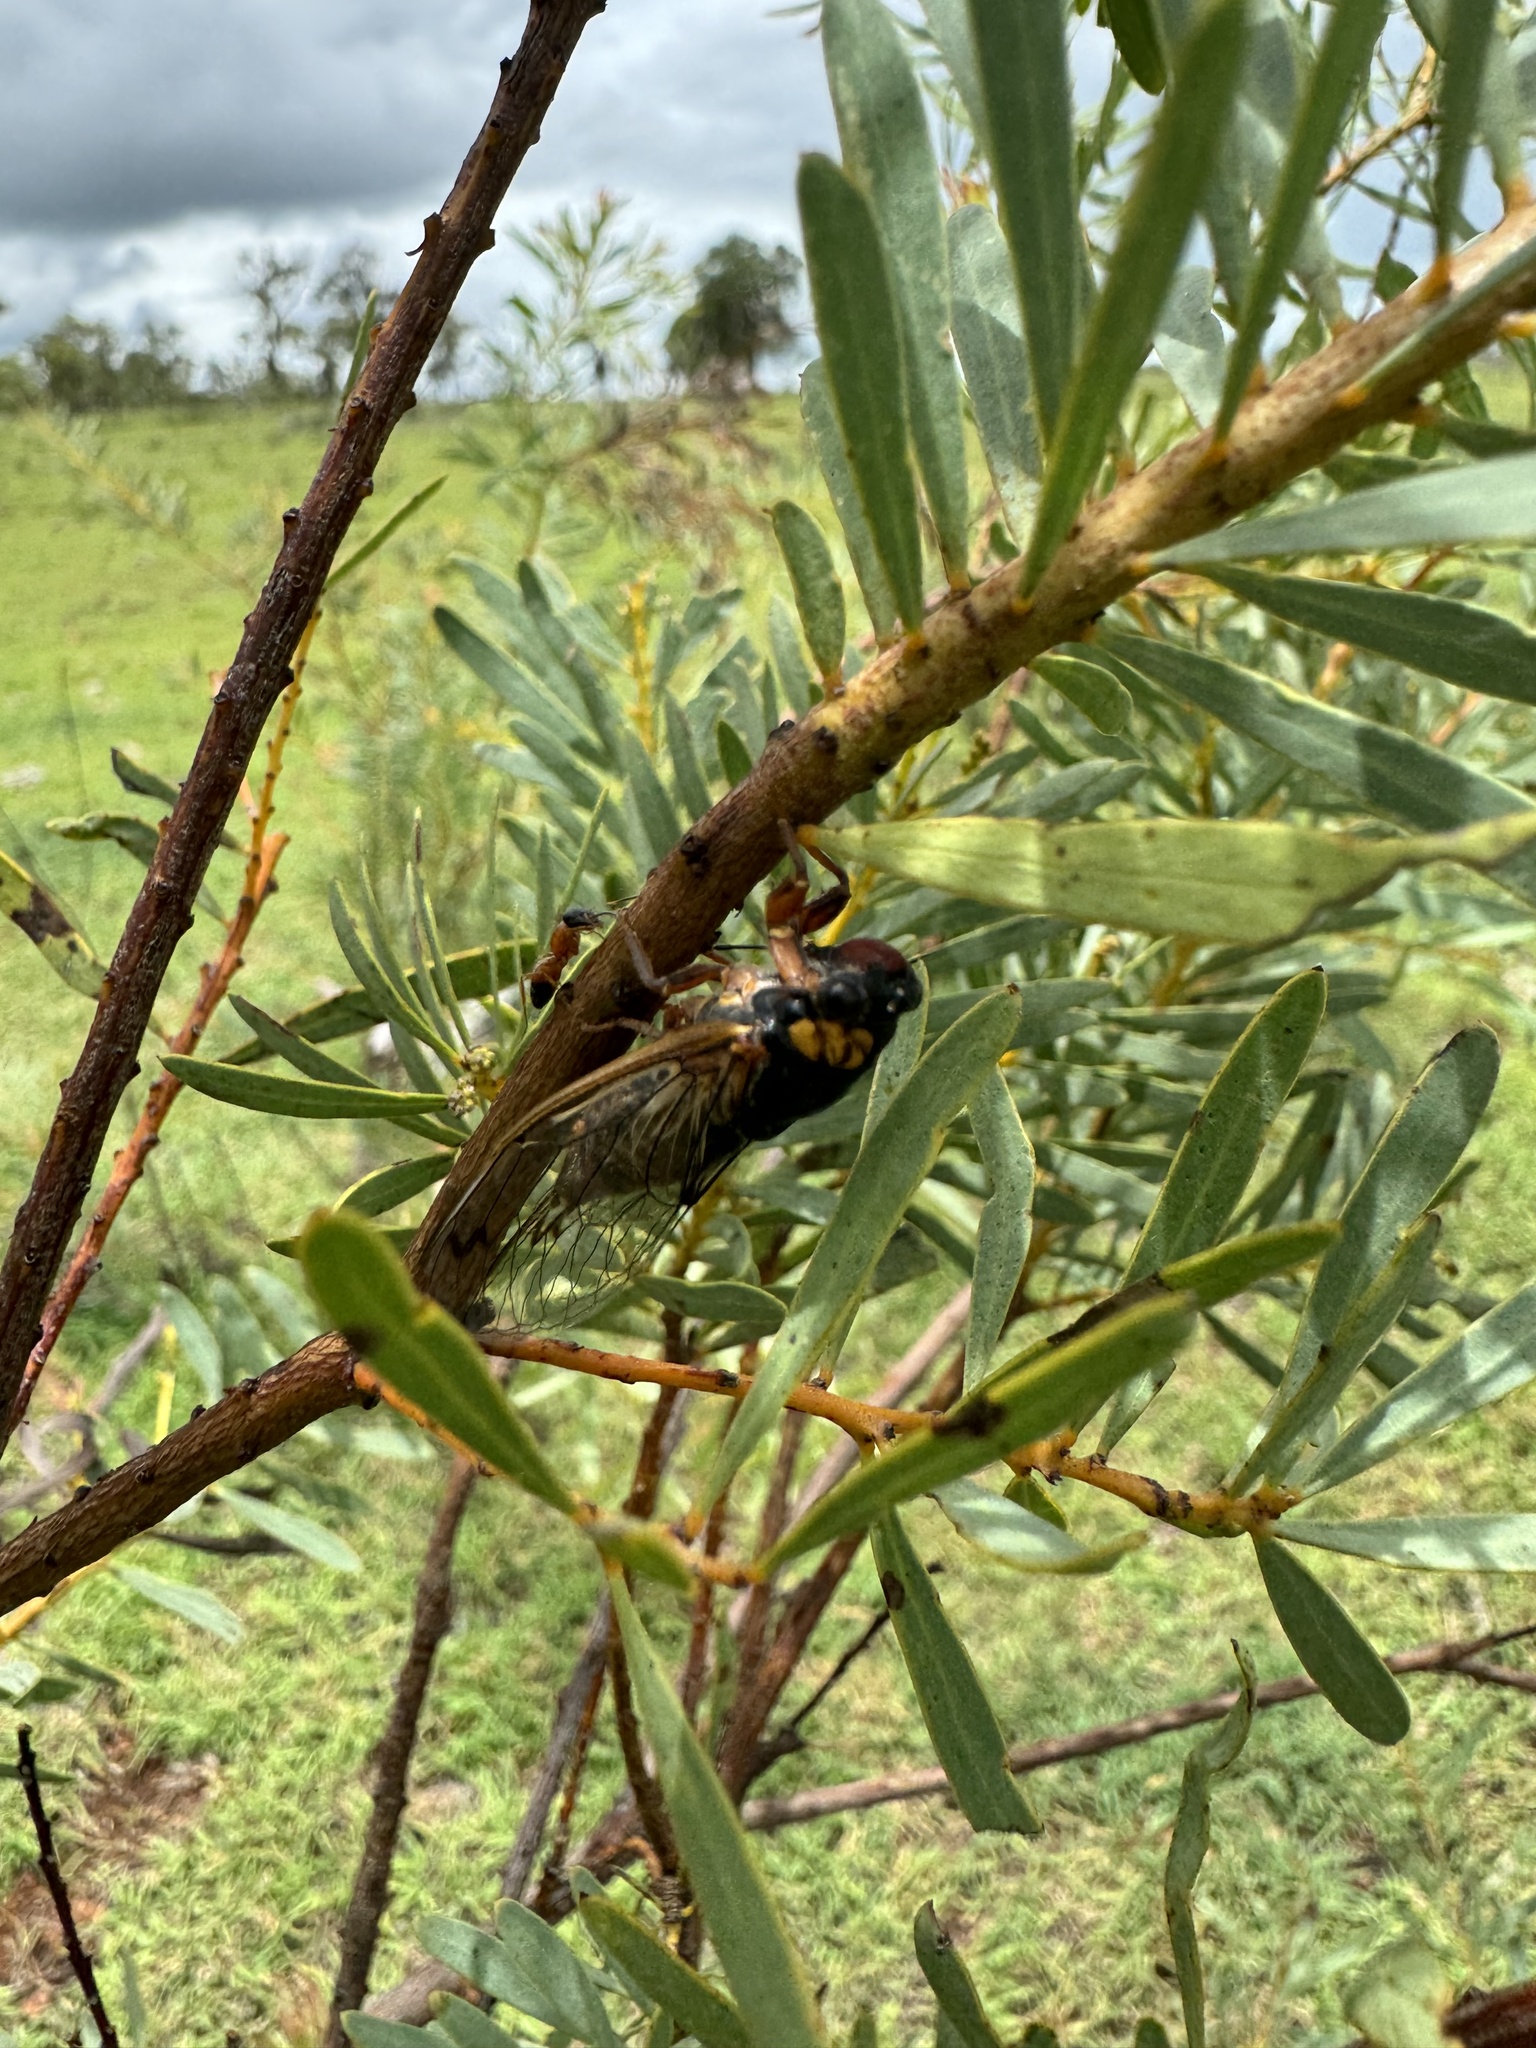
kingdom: Animalia
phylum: Arthropoda
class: Insecta
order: Hemiptera
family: Cicadidae
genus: Tryella
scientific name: Tryella willsi
